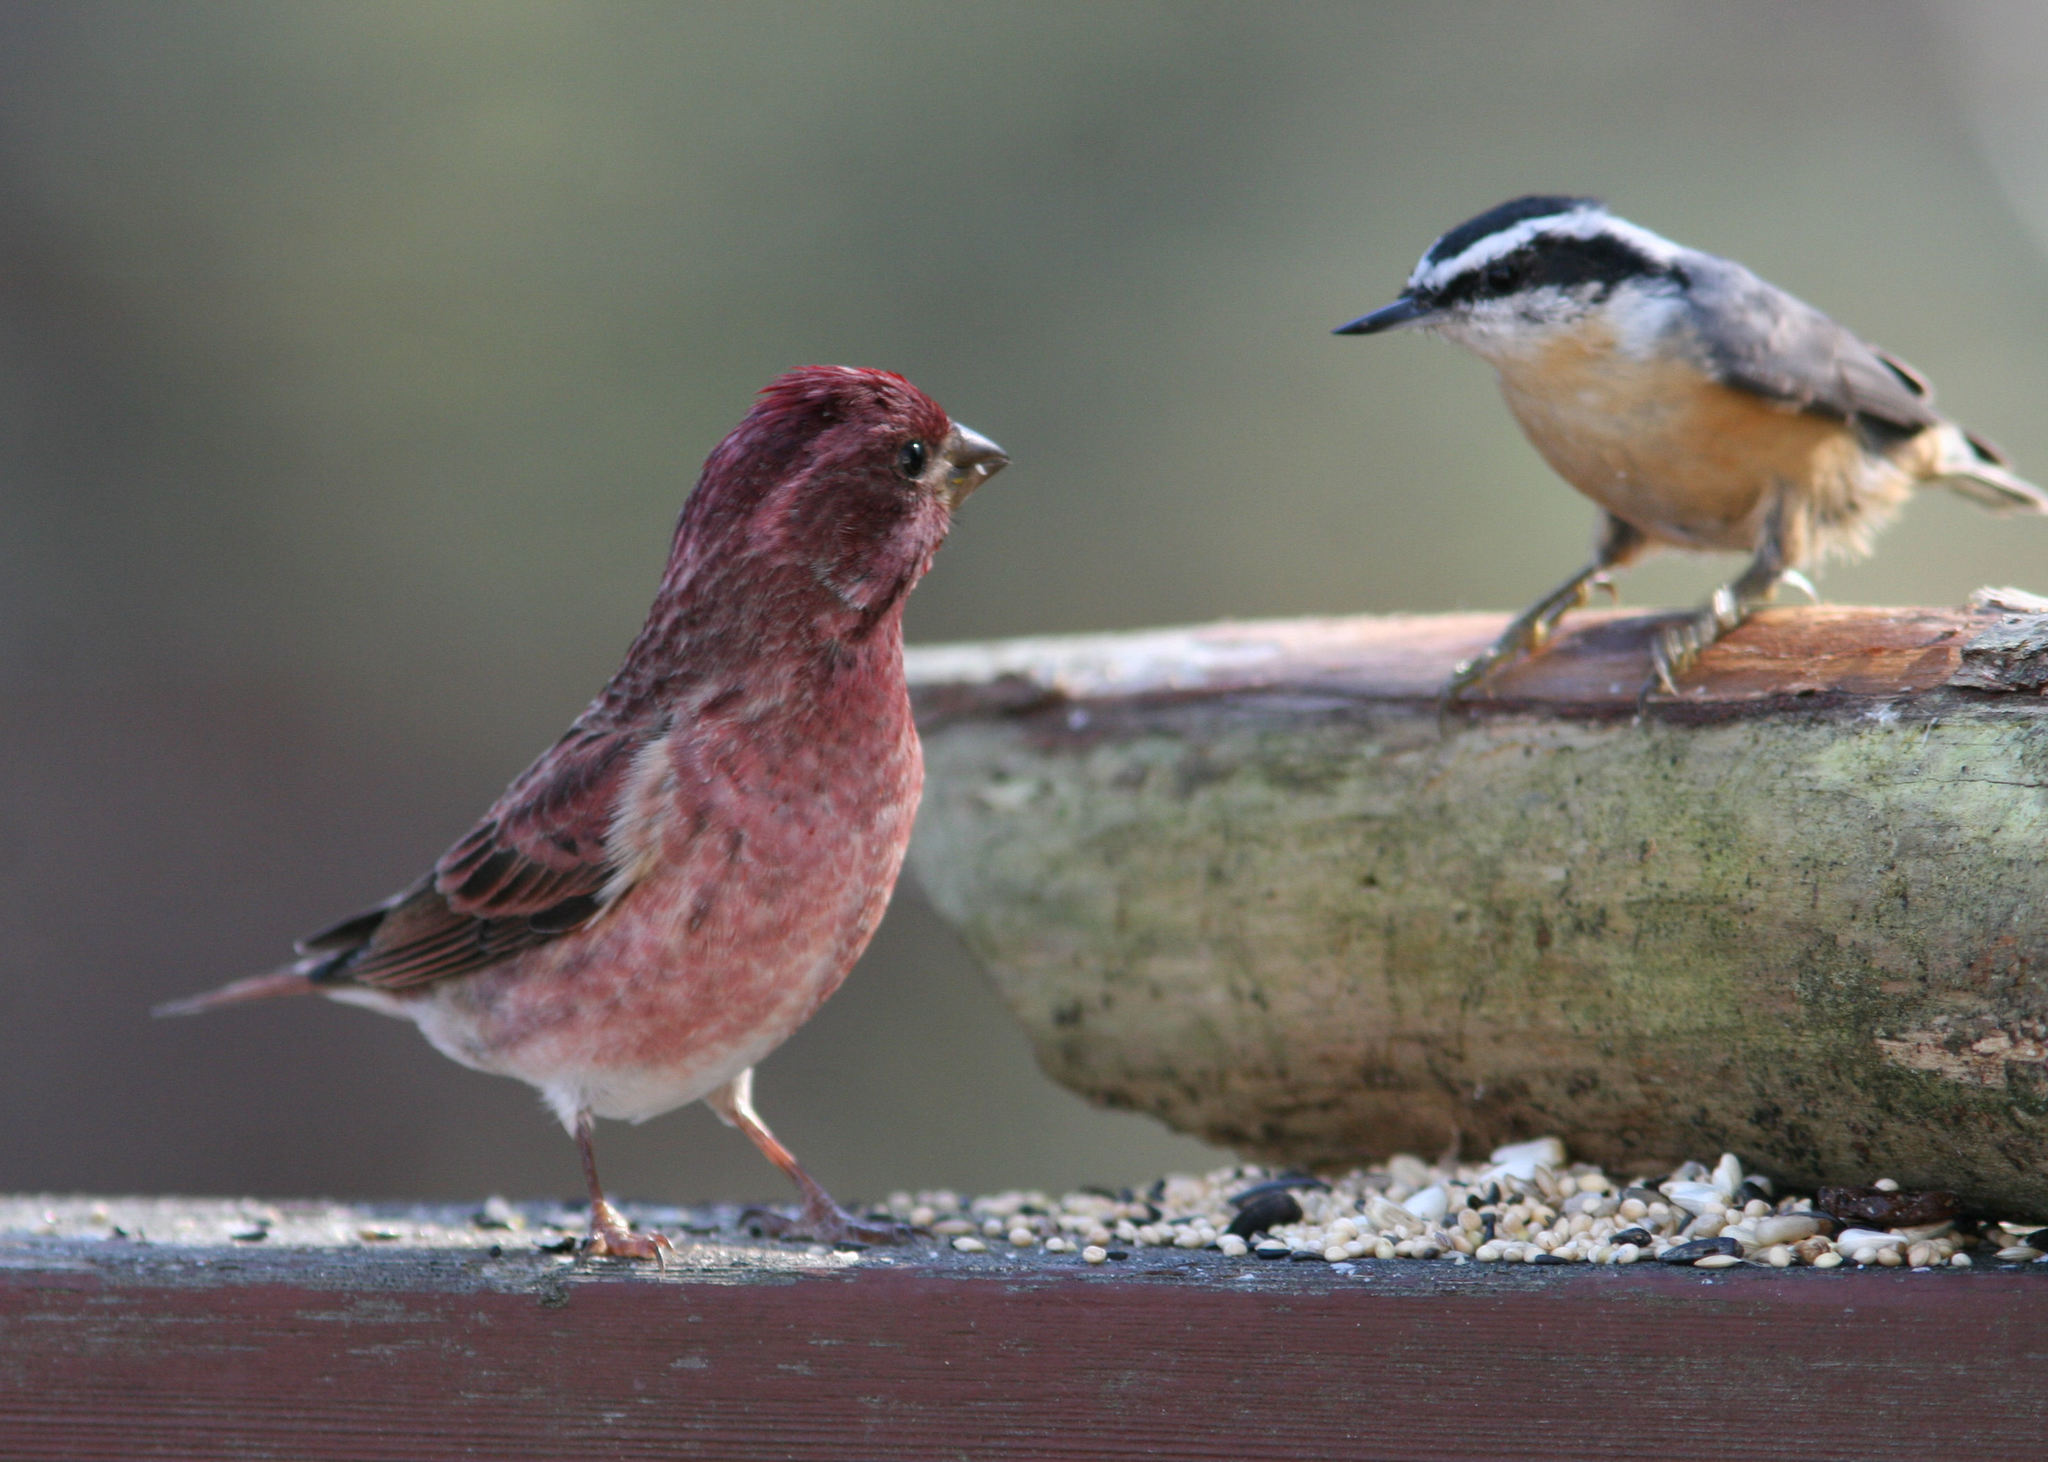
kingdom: Animalia
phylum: Chordata
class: Aves
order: Passeriformes
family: Sittidae
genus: Sitta
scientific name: Sitta canadensis
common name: Red-breasted nuthatch
